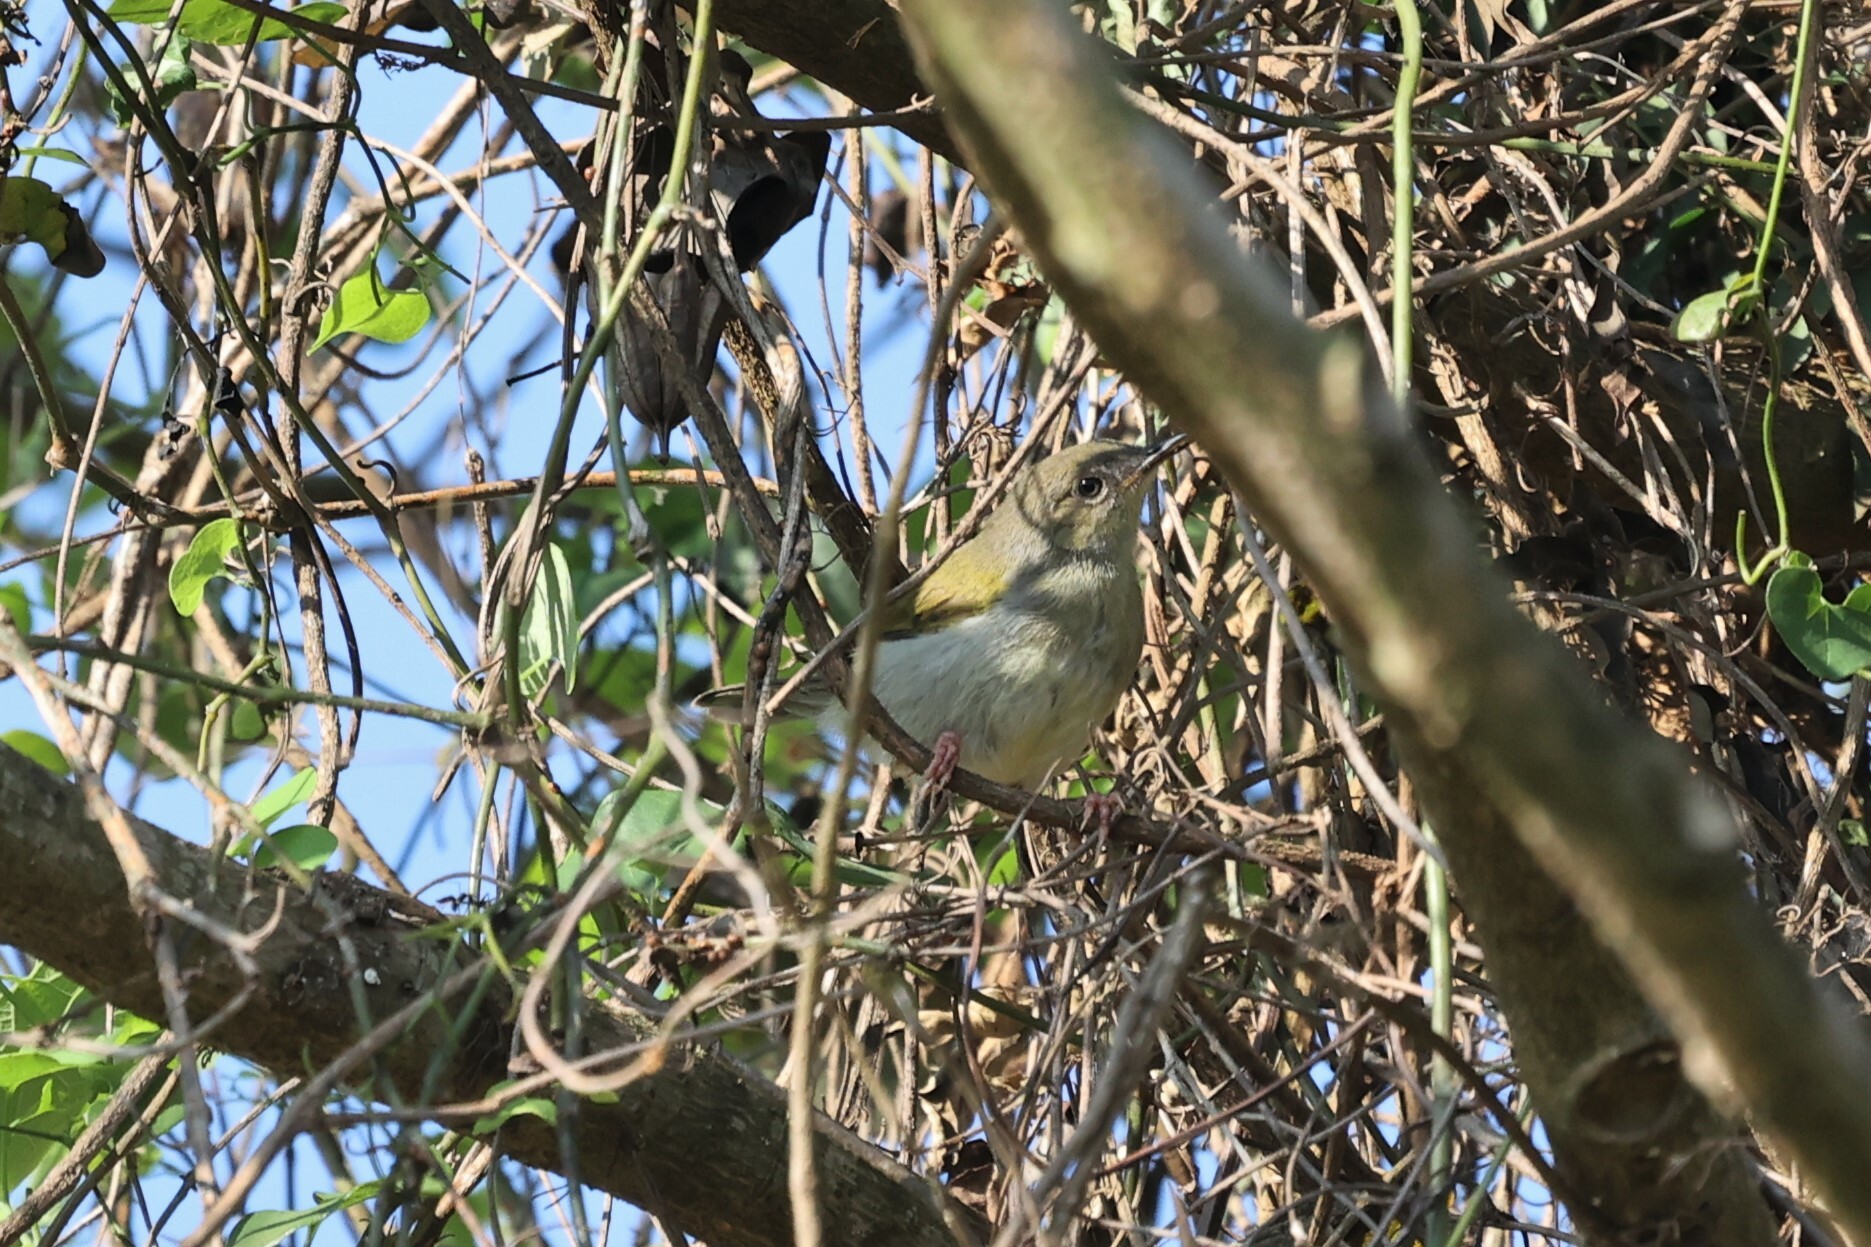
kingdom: Animalia
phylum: Chordata
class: Aves
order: Passeriformes
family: Cisticolidae
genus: Camaroptera
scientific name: Camaroptera brachyura
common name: Green-backed camaroptera
